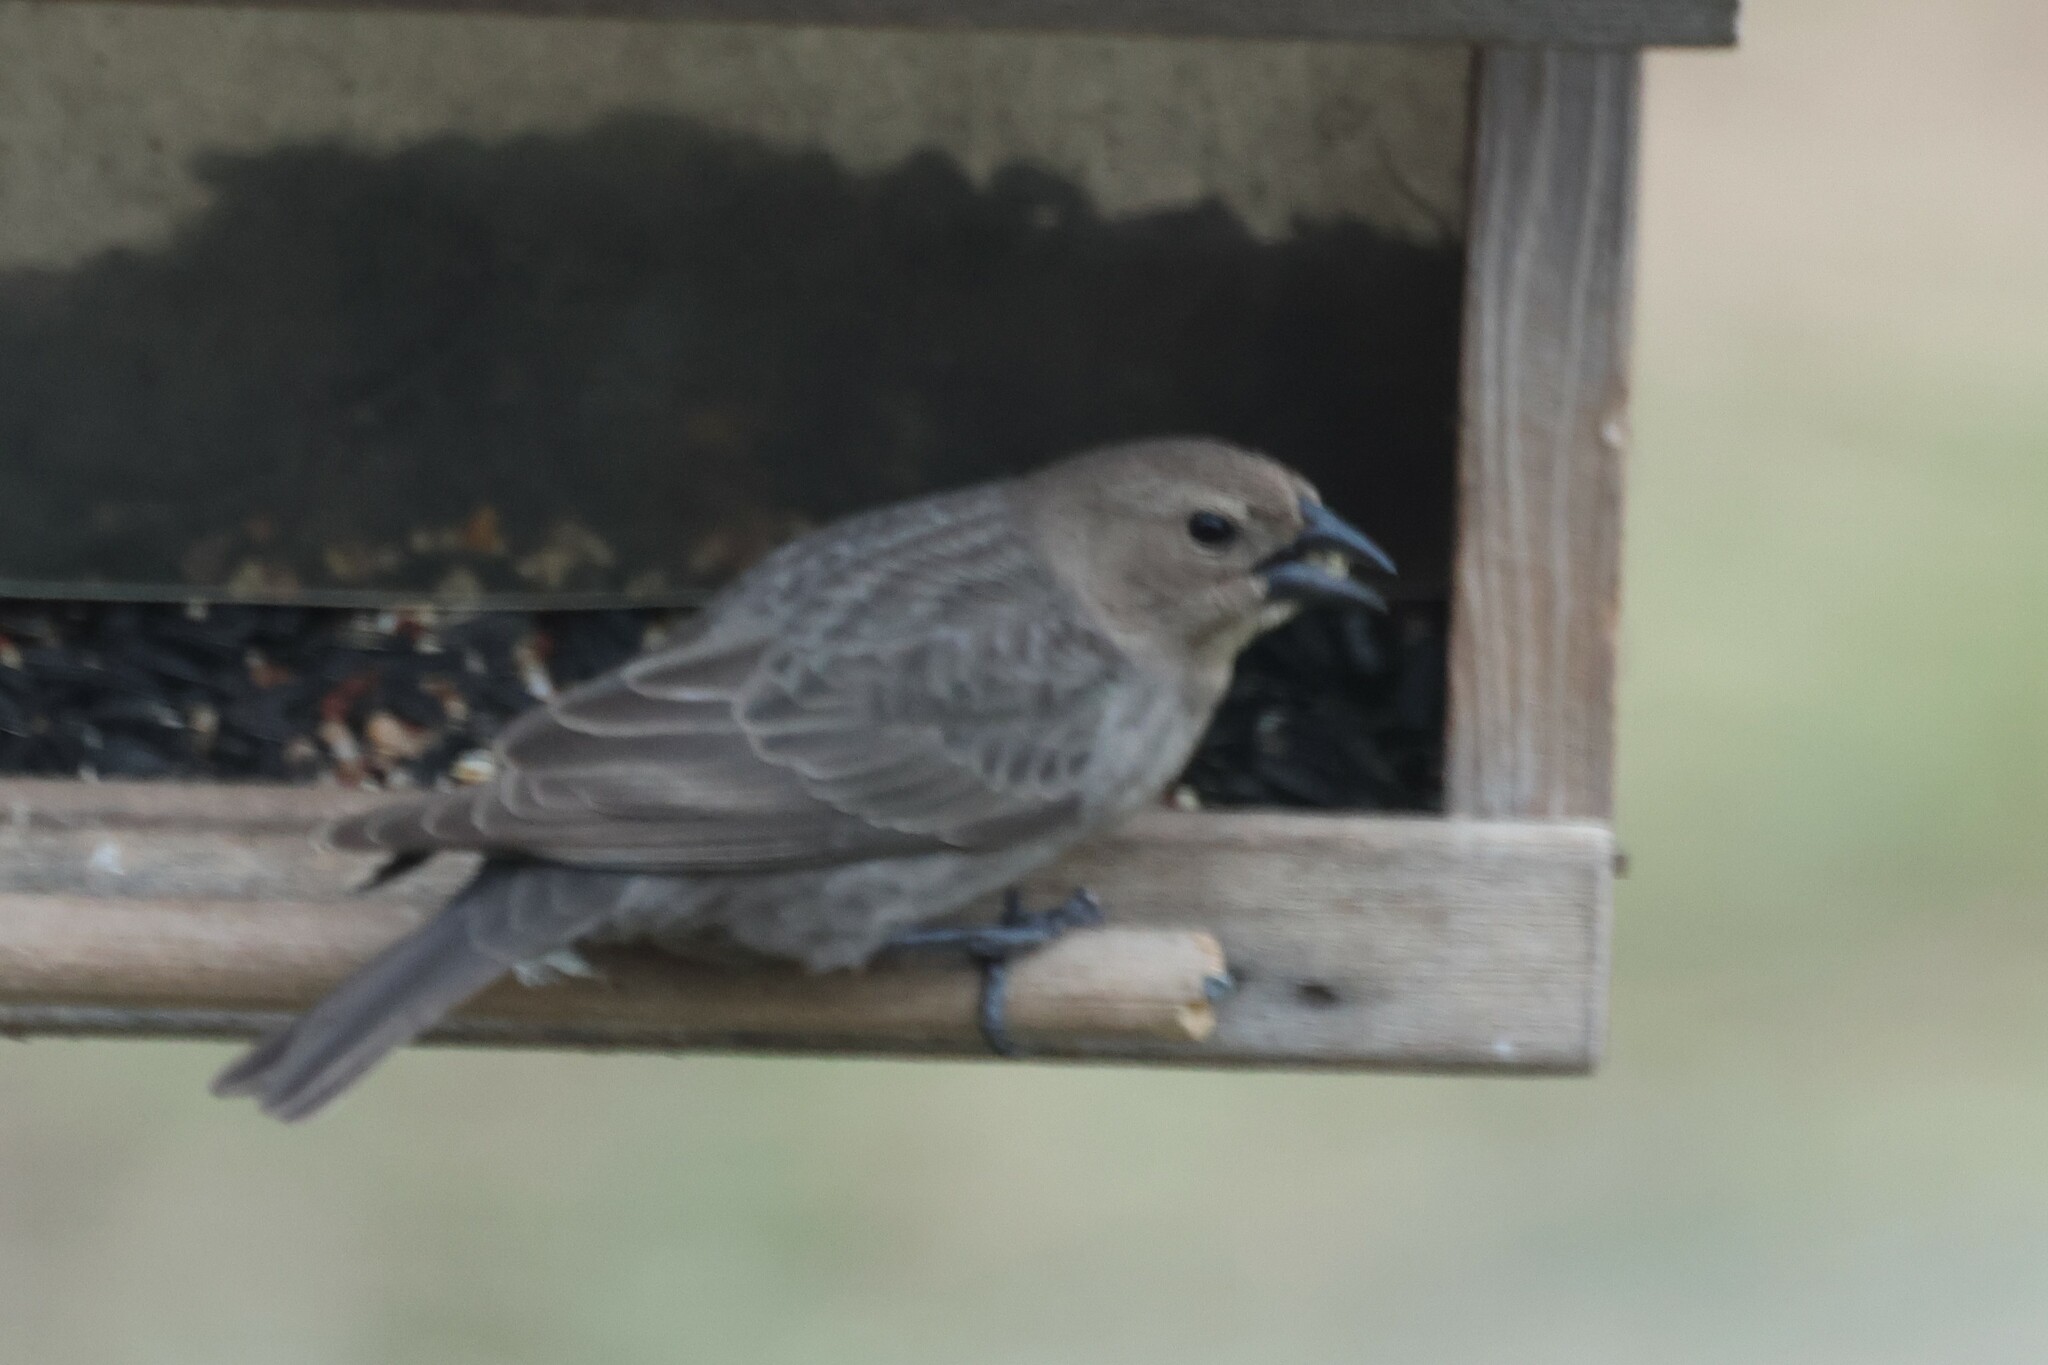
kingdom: Animalia
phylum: Chordata
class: Aves
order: Passeriformes
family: Icteridae
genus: Molothrus
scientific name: Molothrus ater
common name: Brown-headed cowbird
